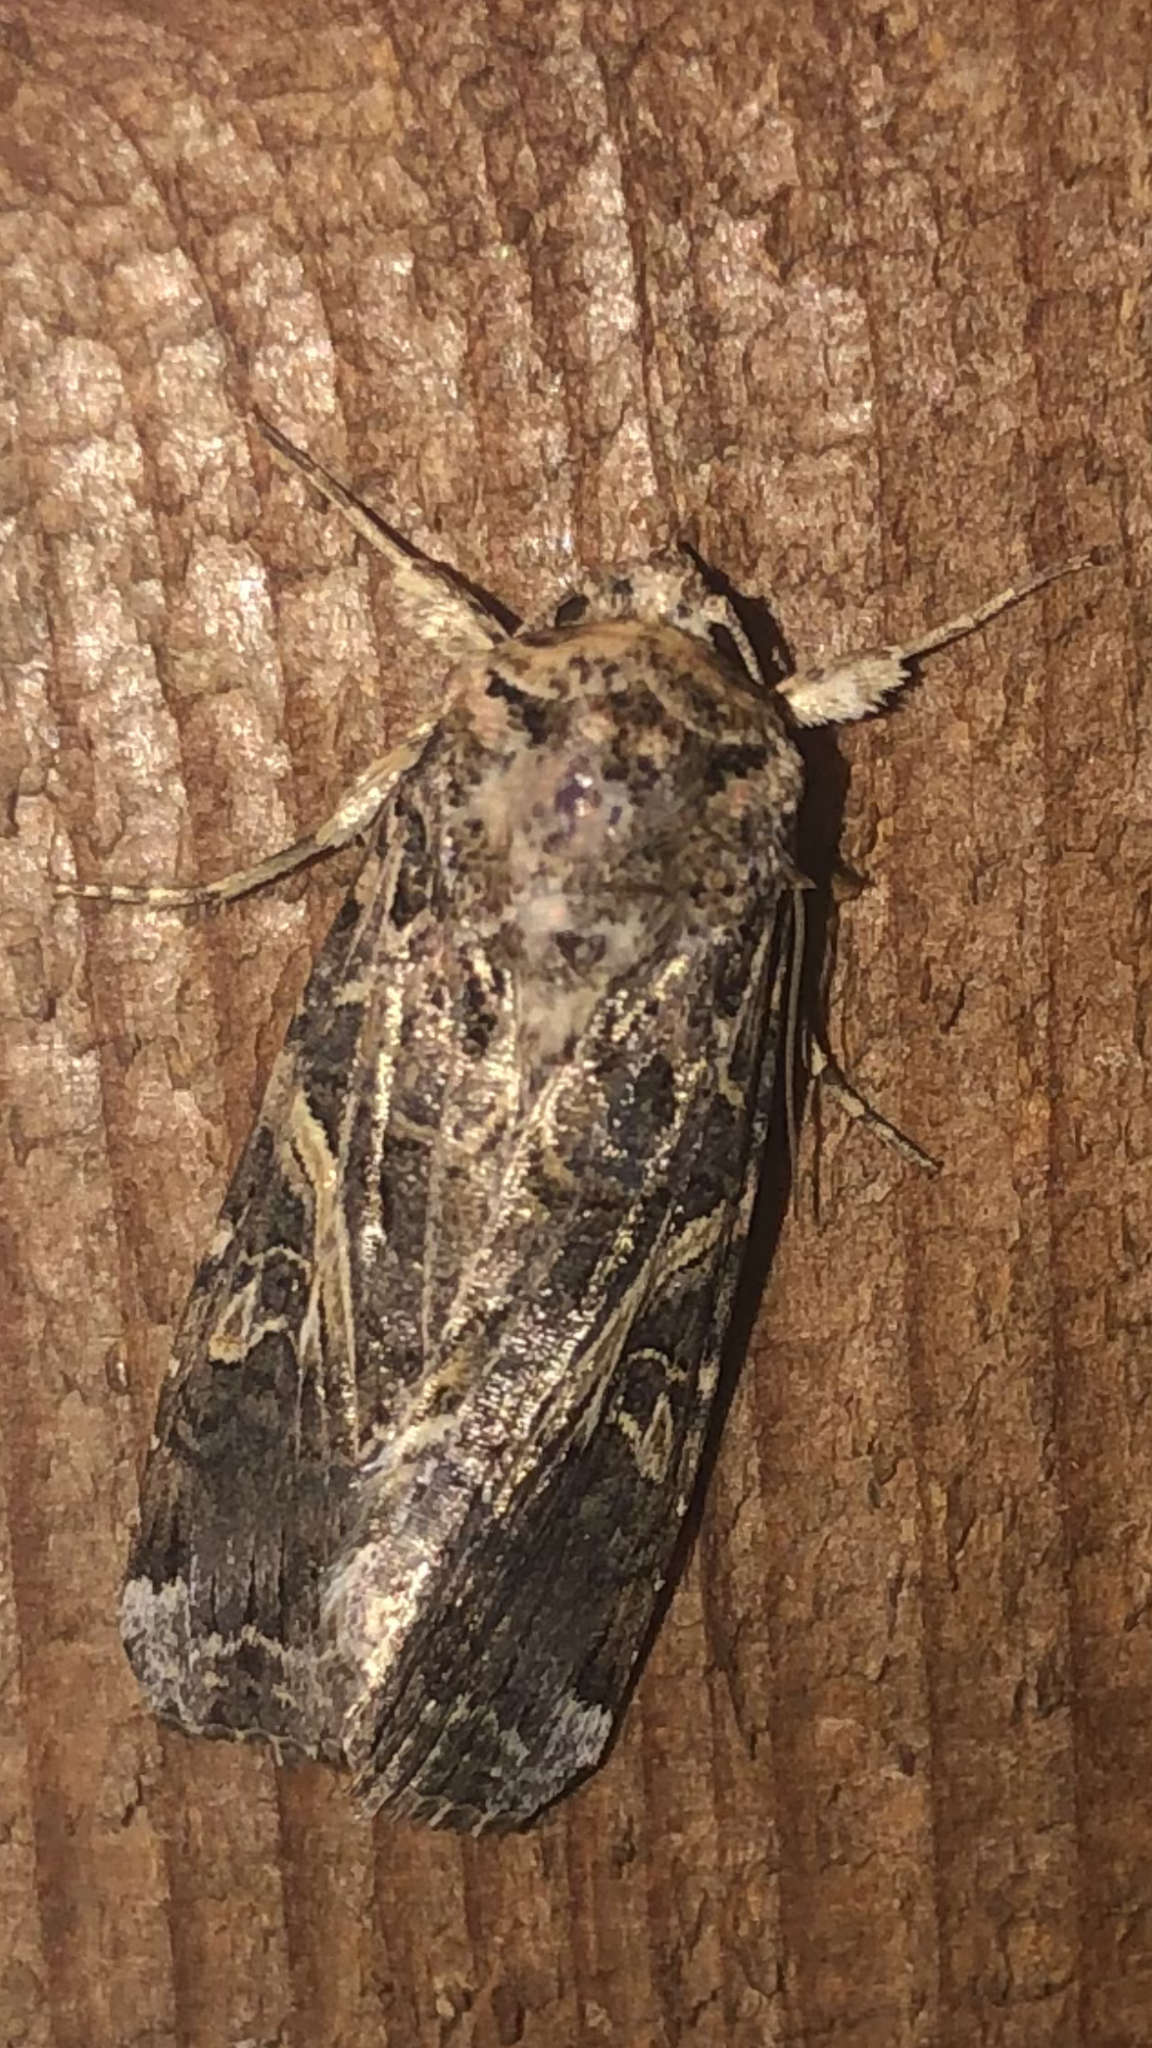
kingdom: Animalia
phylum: Arthropoda
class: Insecta
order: Lepidoptera
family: Noctuidae
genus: Spodoptera
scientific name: Spodoptera ornithogalli
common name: Yellow-striped armyworm
